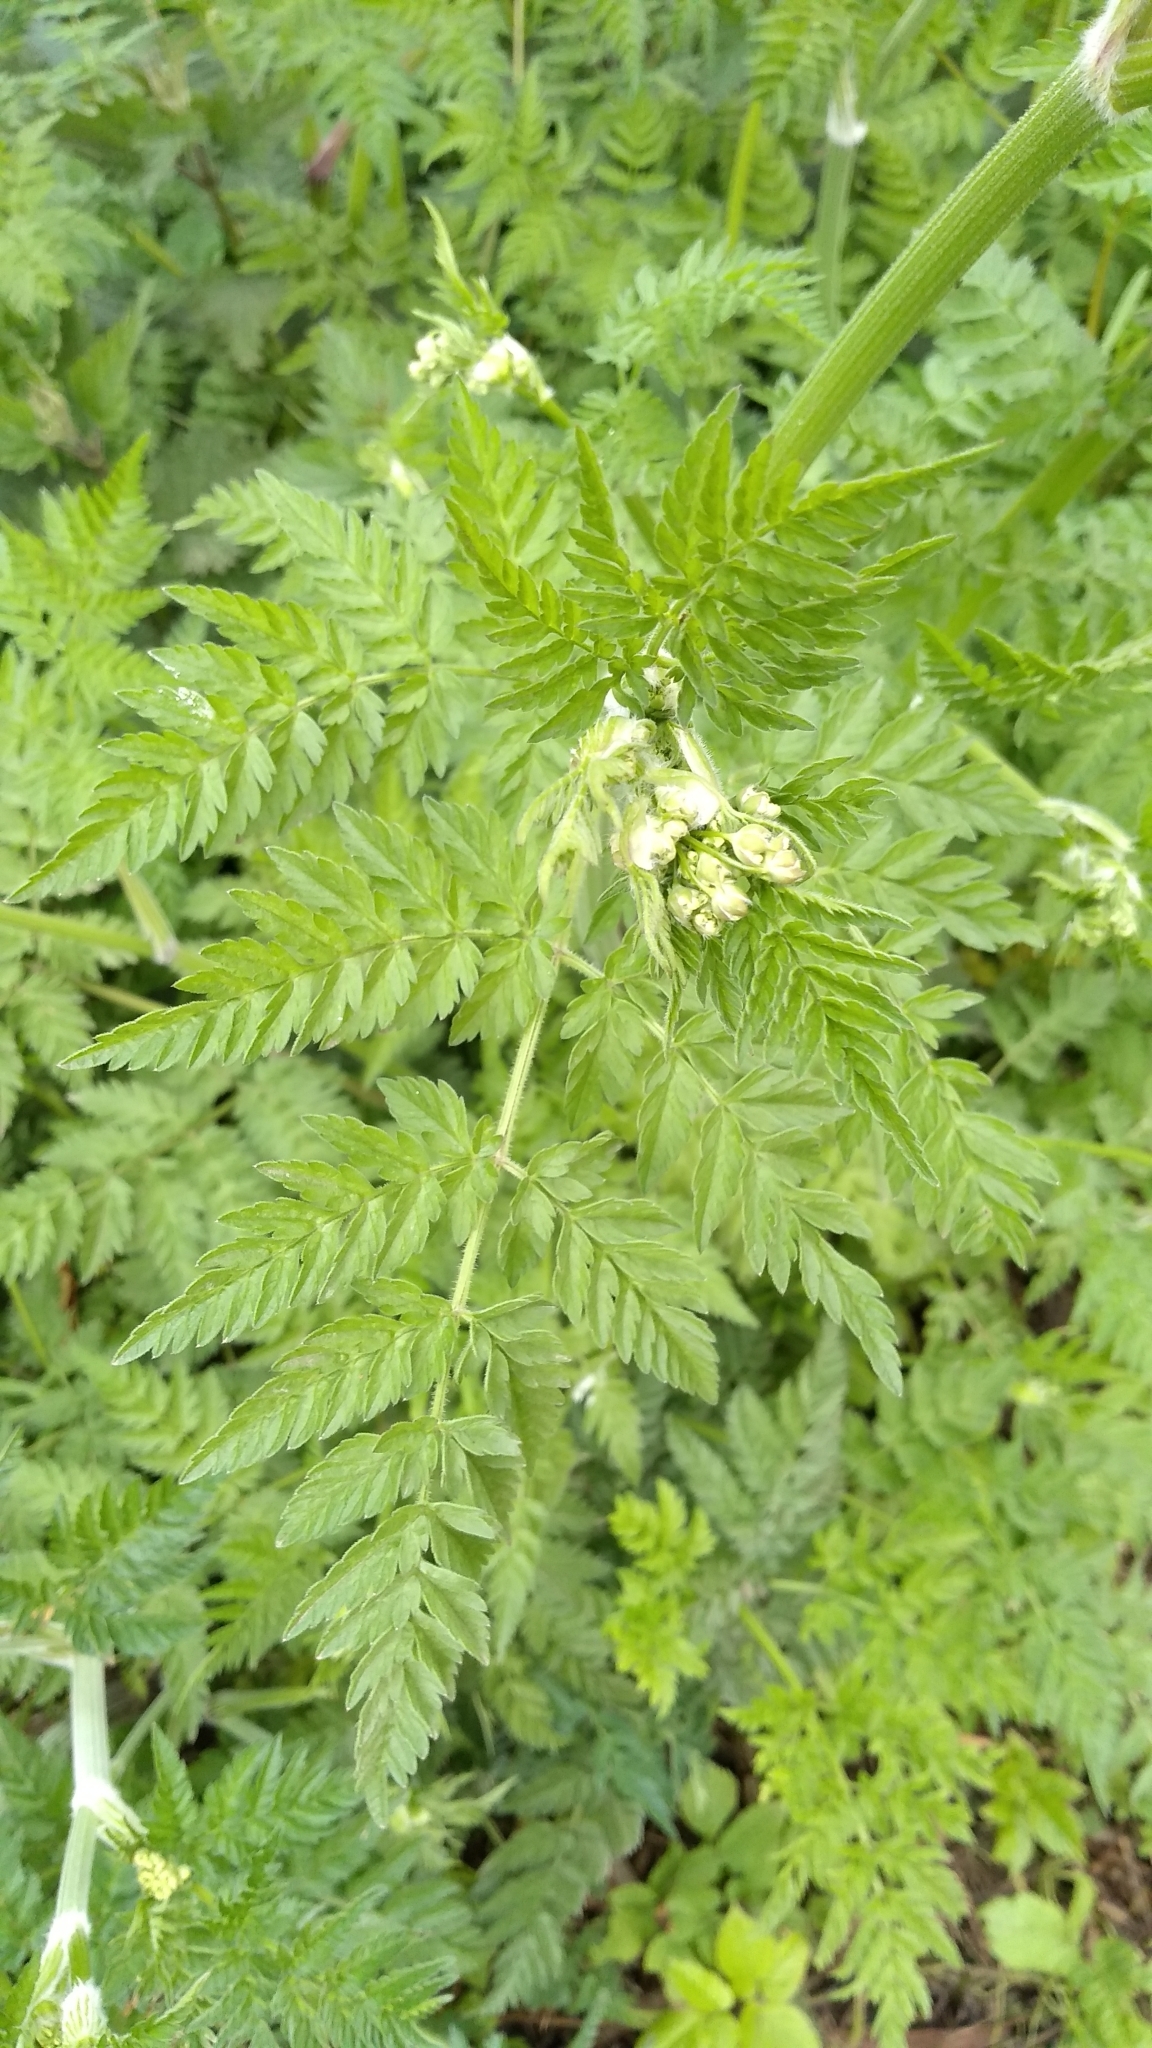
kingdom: Plantae
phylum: Tracheophyta
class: Magnoliopsida
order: Apiales
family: Apiaceae
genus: Anthriscus
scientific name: Anthriscus sylvestris
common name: Cow parsley
